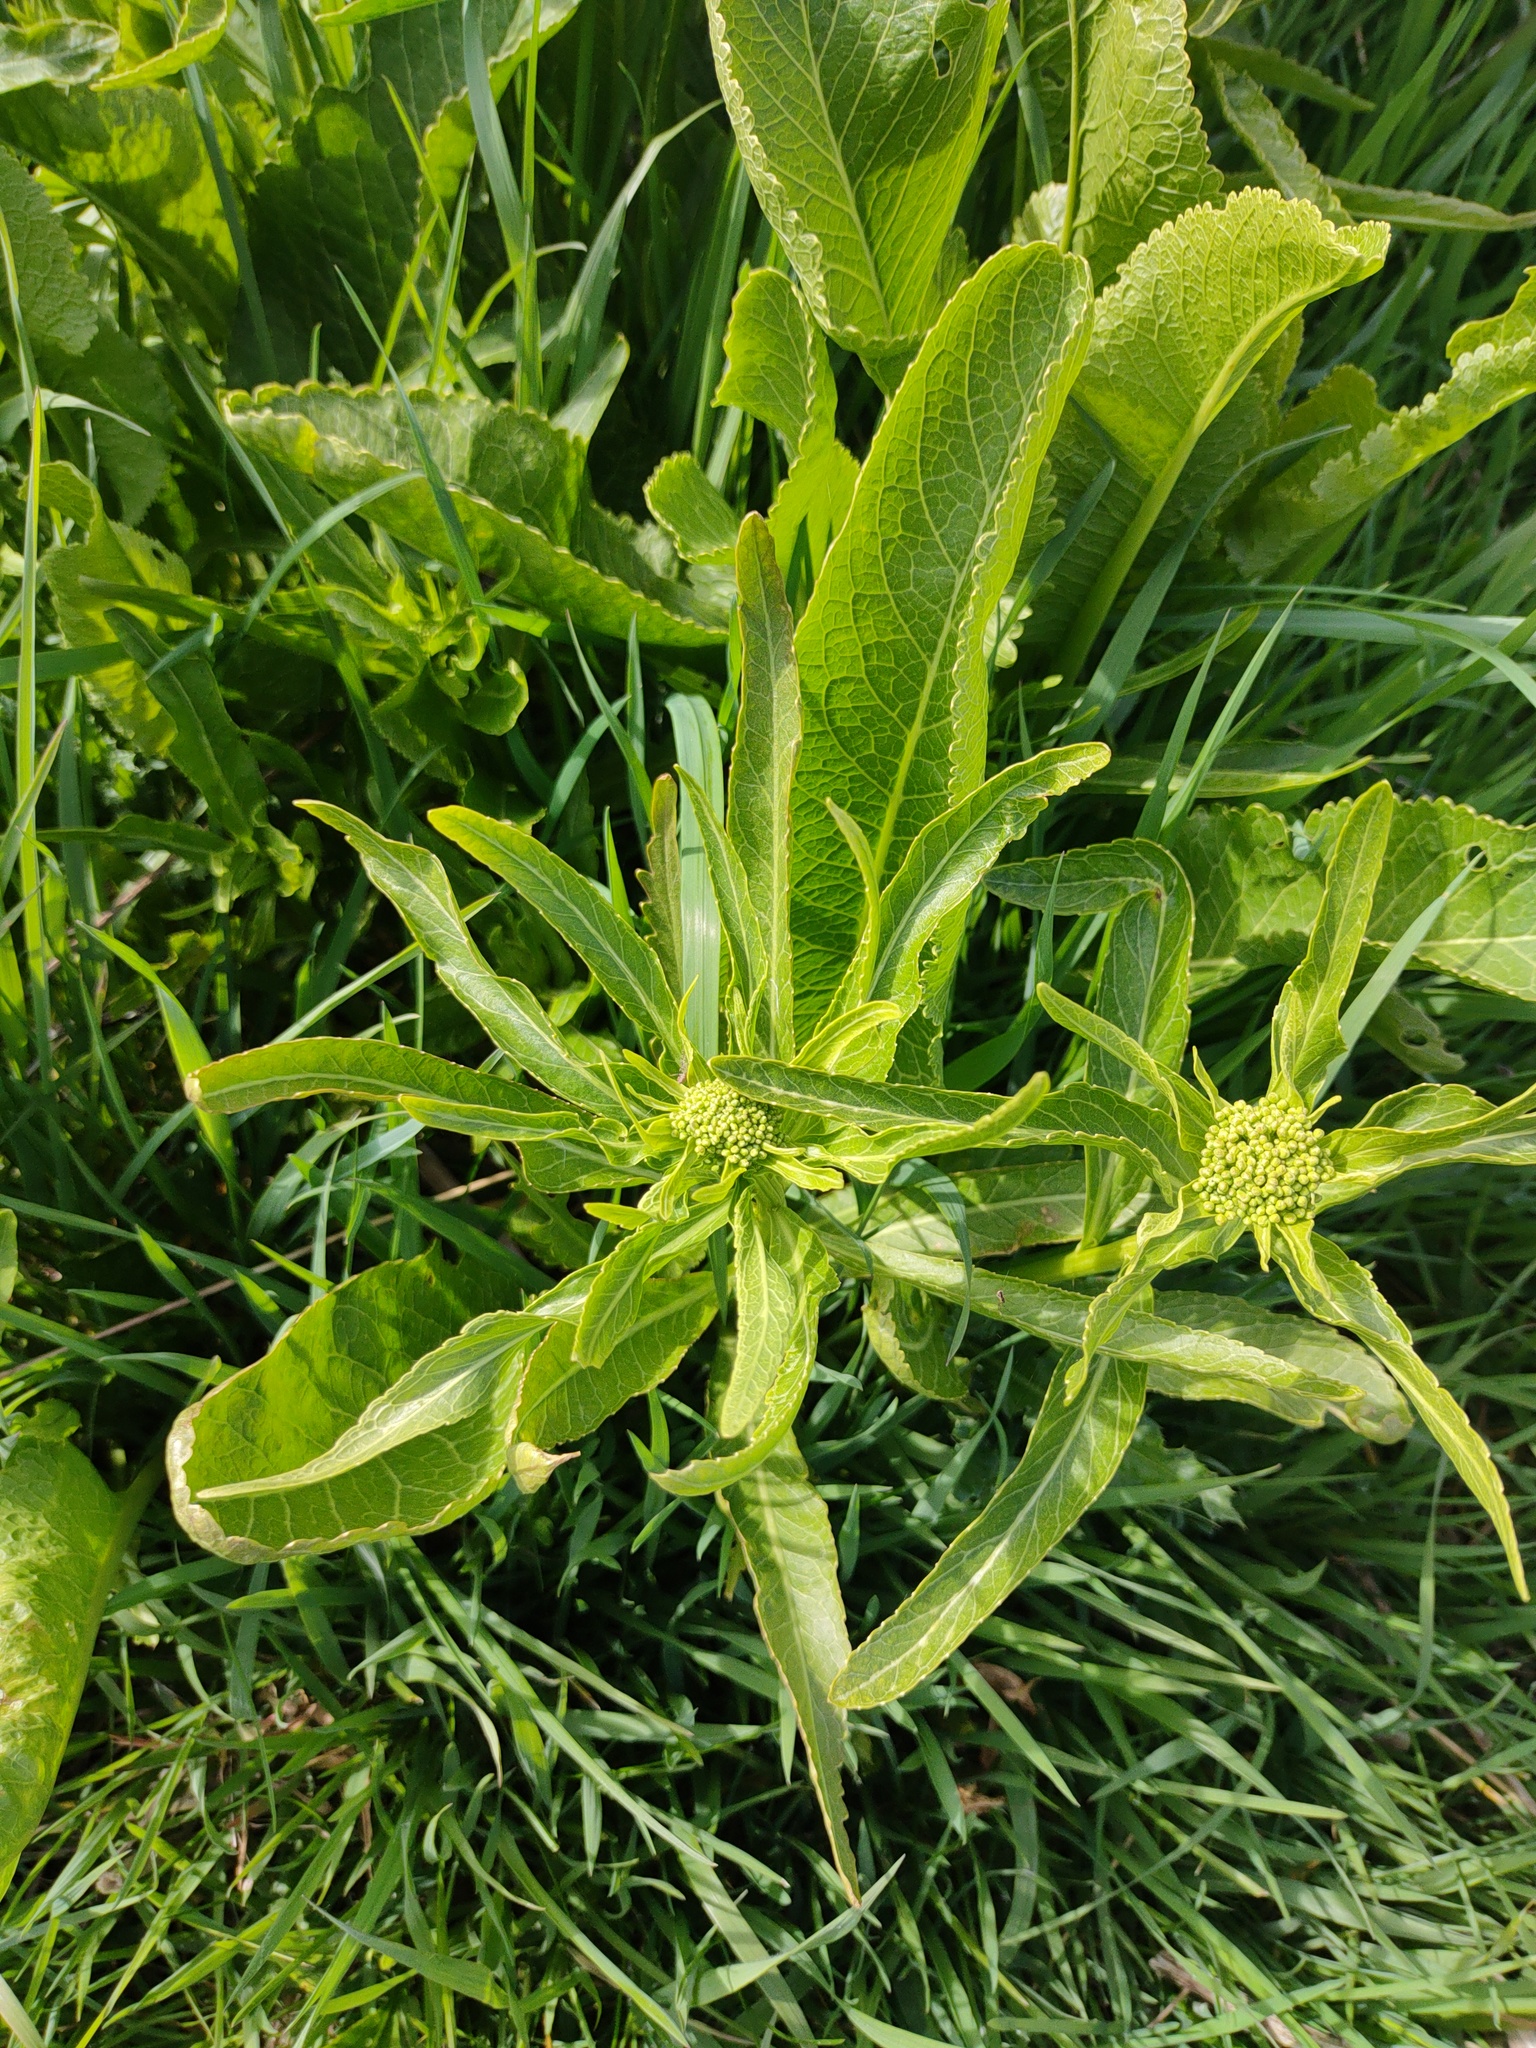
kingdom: Plantae
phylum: Tracheophyta
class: Magnoliopsida
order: Brassicales
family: Brassicaceae
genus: Armoracia
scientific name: Armoracia rusticana
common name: Horseradish
